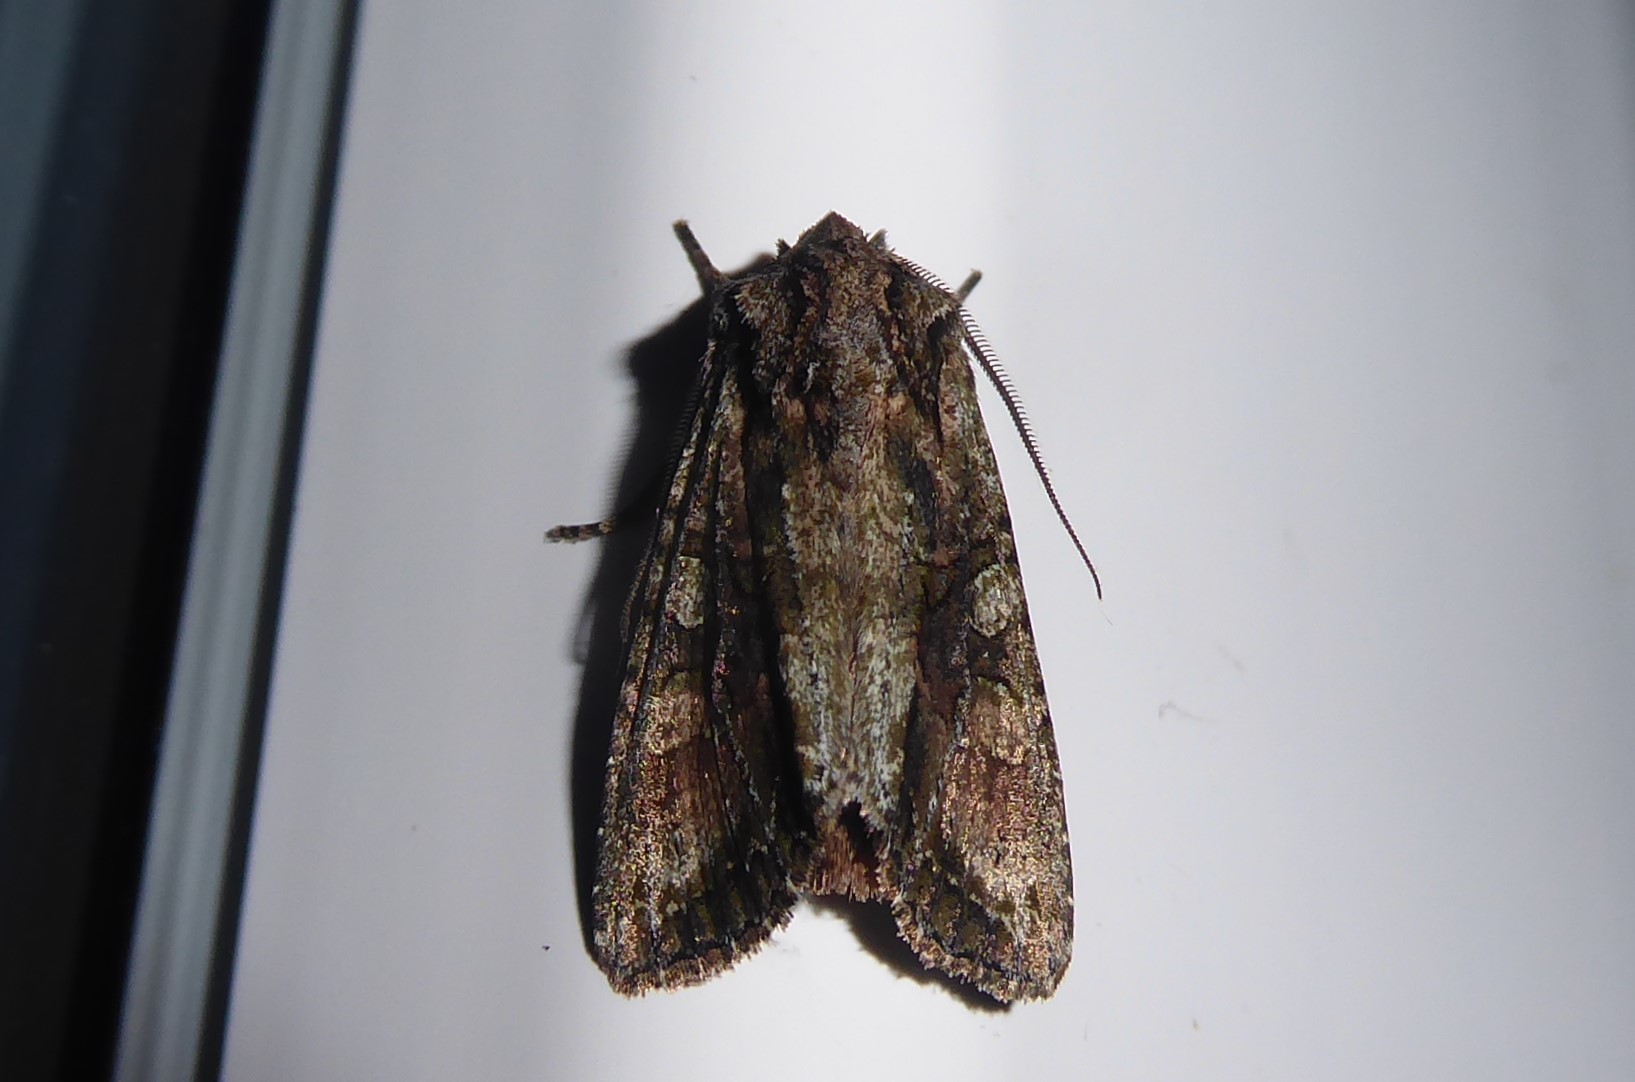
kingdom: Animalia
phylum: Arthropoda
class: Insecta
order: Lepidoptera
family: Noctuidae
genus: Ichneutica
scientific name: Ichneutica mutans
